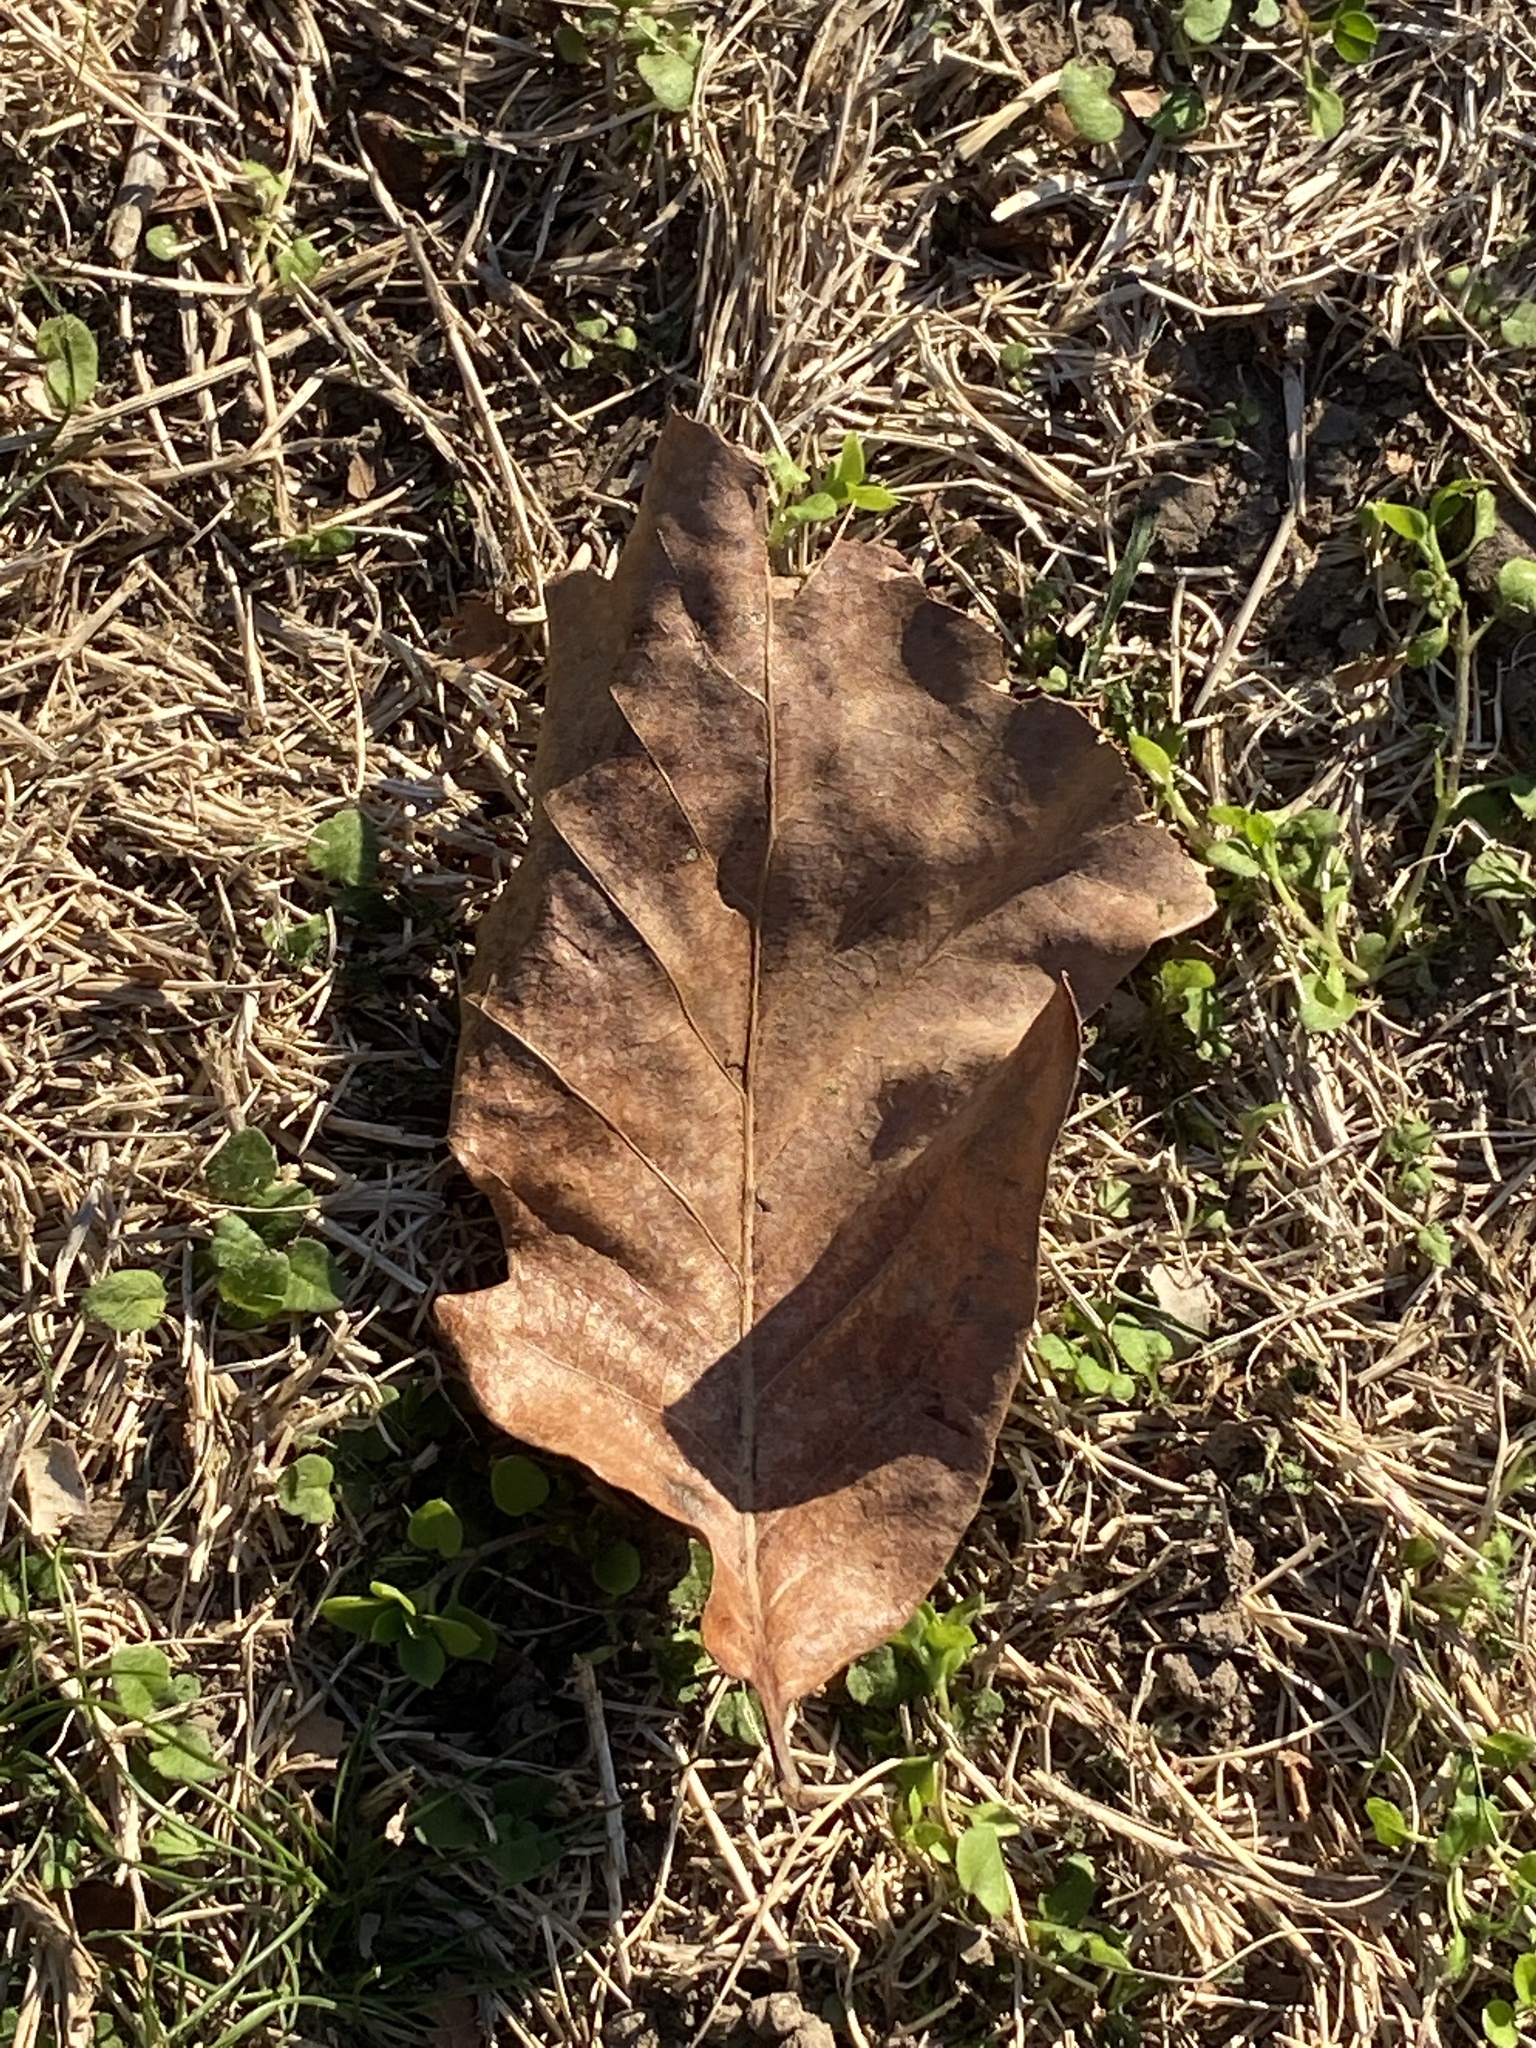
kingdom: Animalia
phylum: Arthropoda
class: Insecta
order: Hymenoptera
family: Cynipidae
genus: Disholcaspis
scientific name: Disholcaspis
